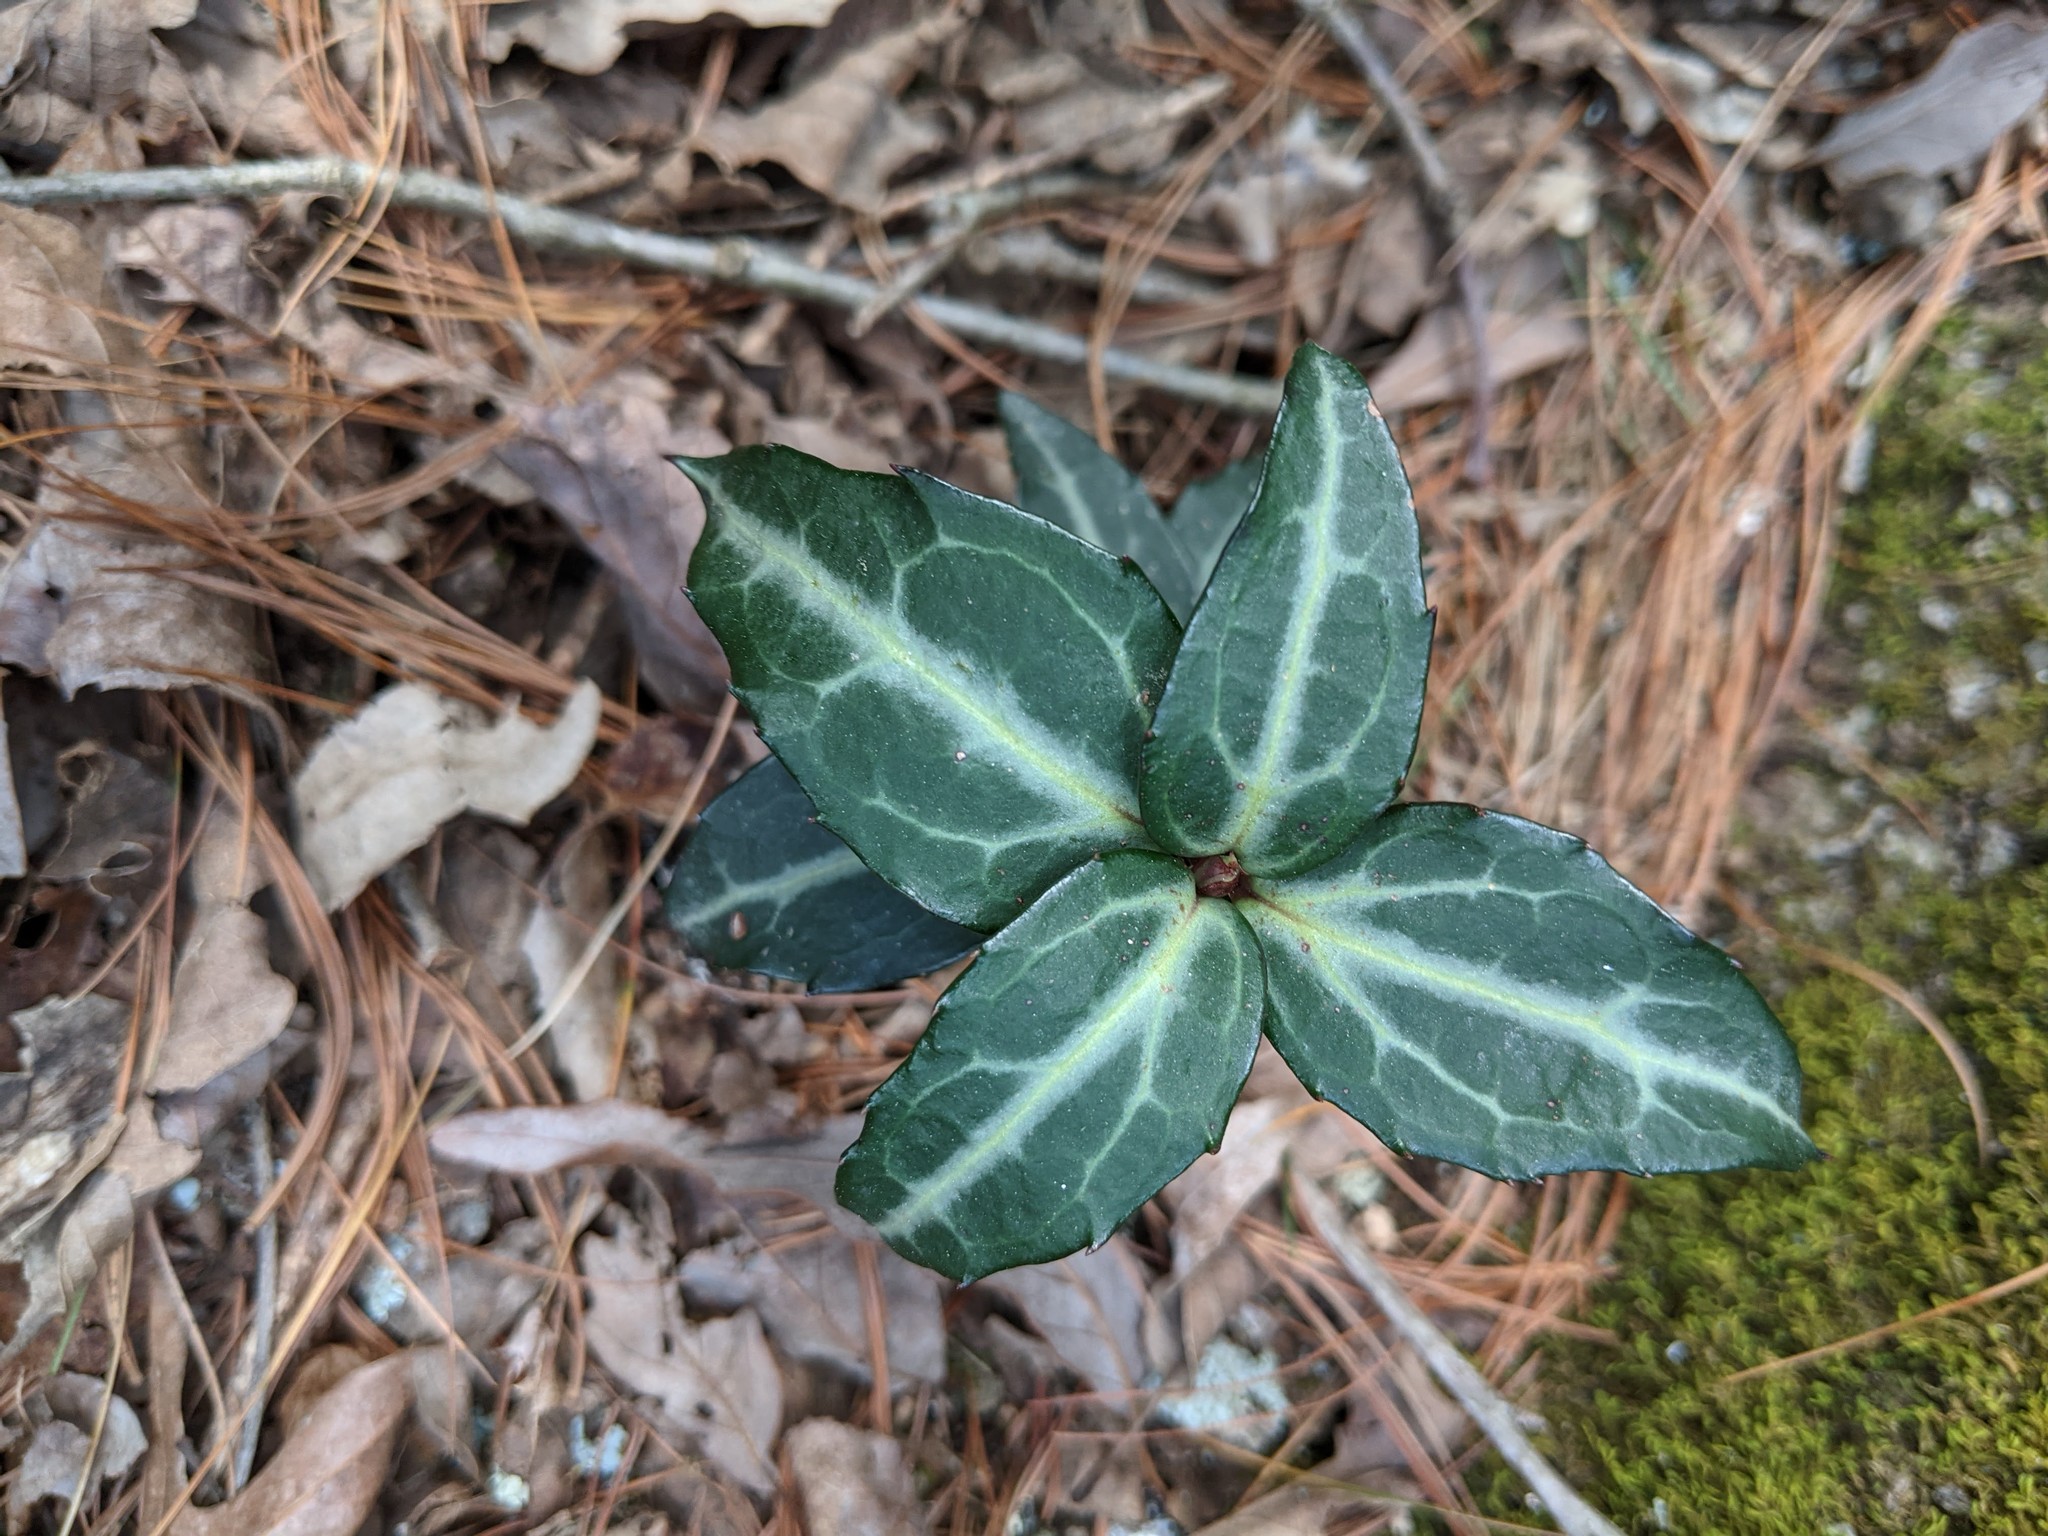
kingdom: Plantae
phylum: Tracheophyta
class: Magnoliopsida
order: Ericales
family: Ericaceae
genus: Chimaphila
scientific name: Chimaphila maculata
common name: Spotted pipsissewa
